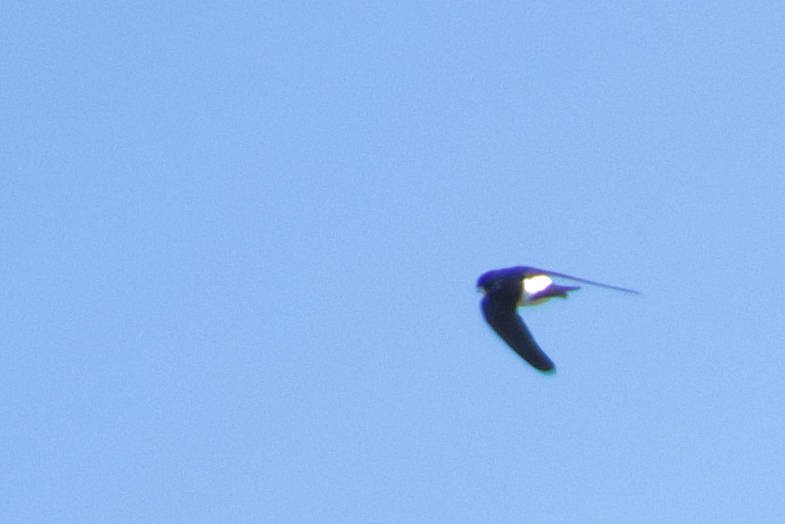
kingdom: Animalia
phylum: Chordata
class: Aves
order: Passeriformes
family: Hirundinidae
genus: Delichon
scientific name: Delichon urbicum
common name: Common house martin
